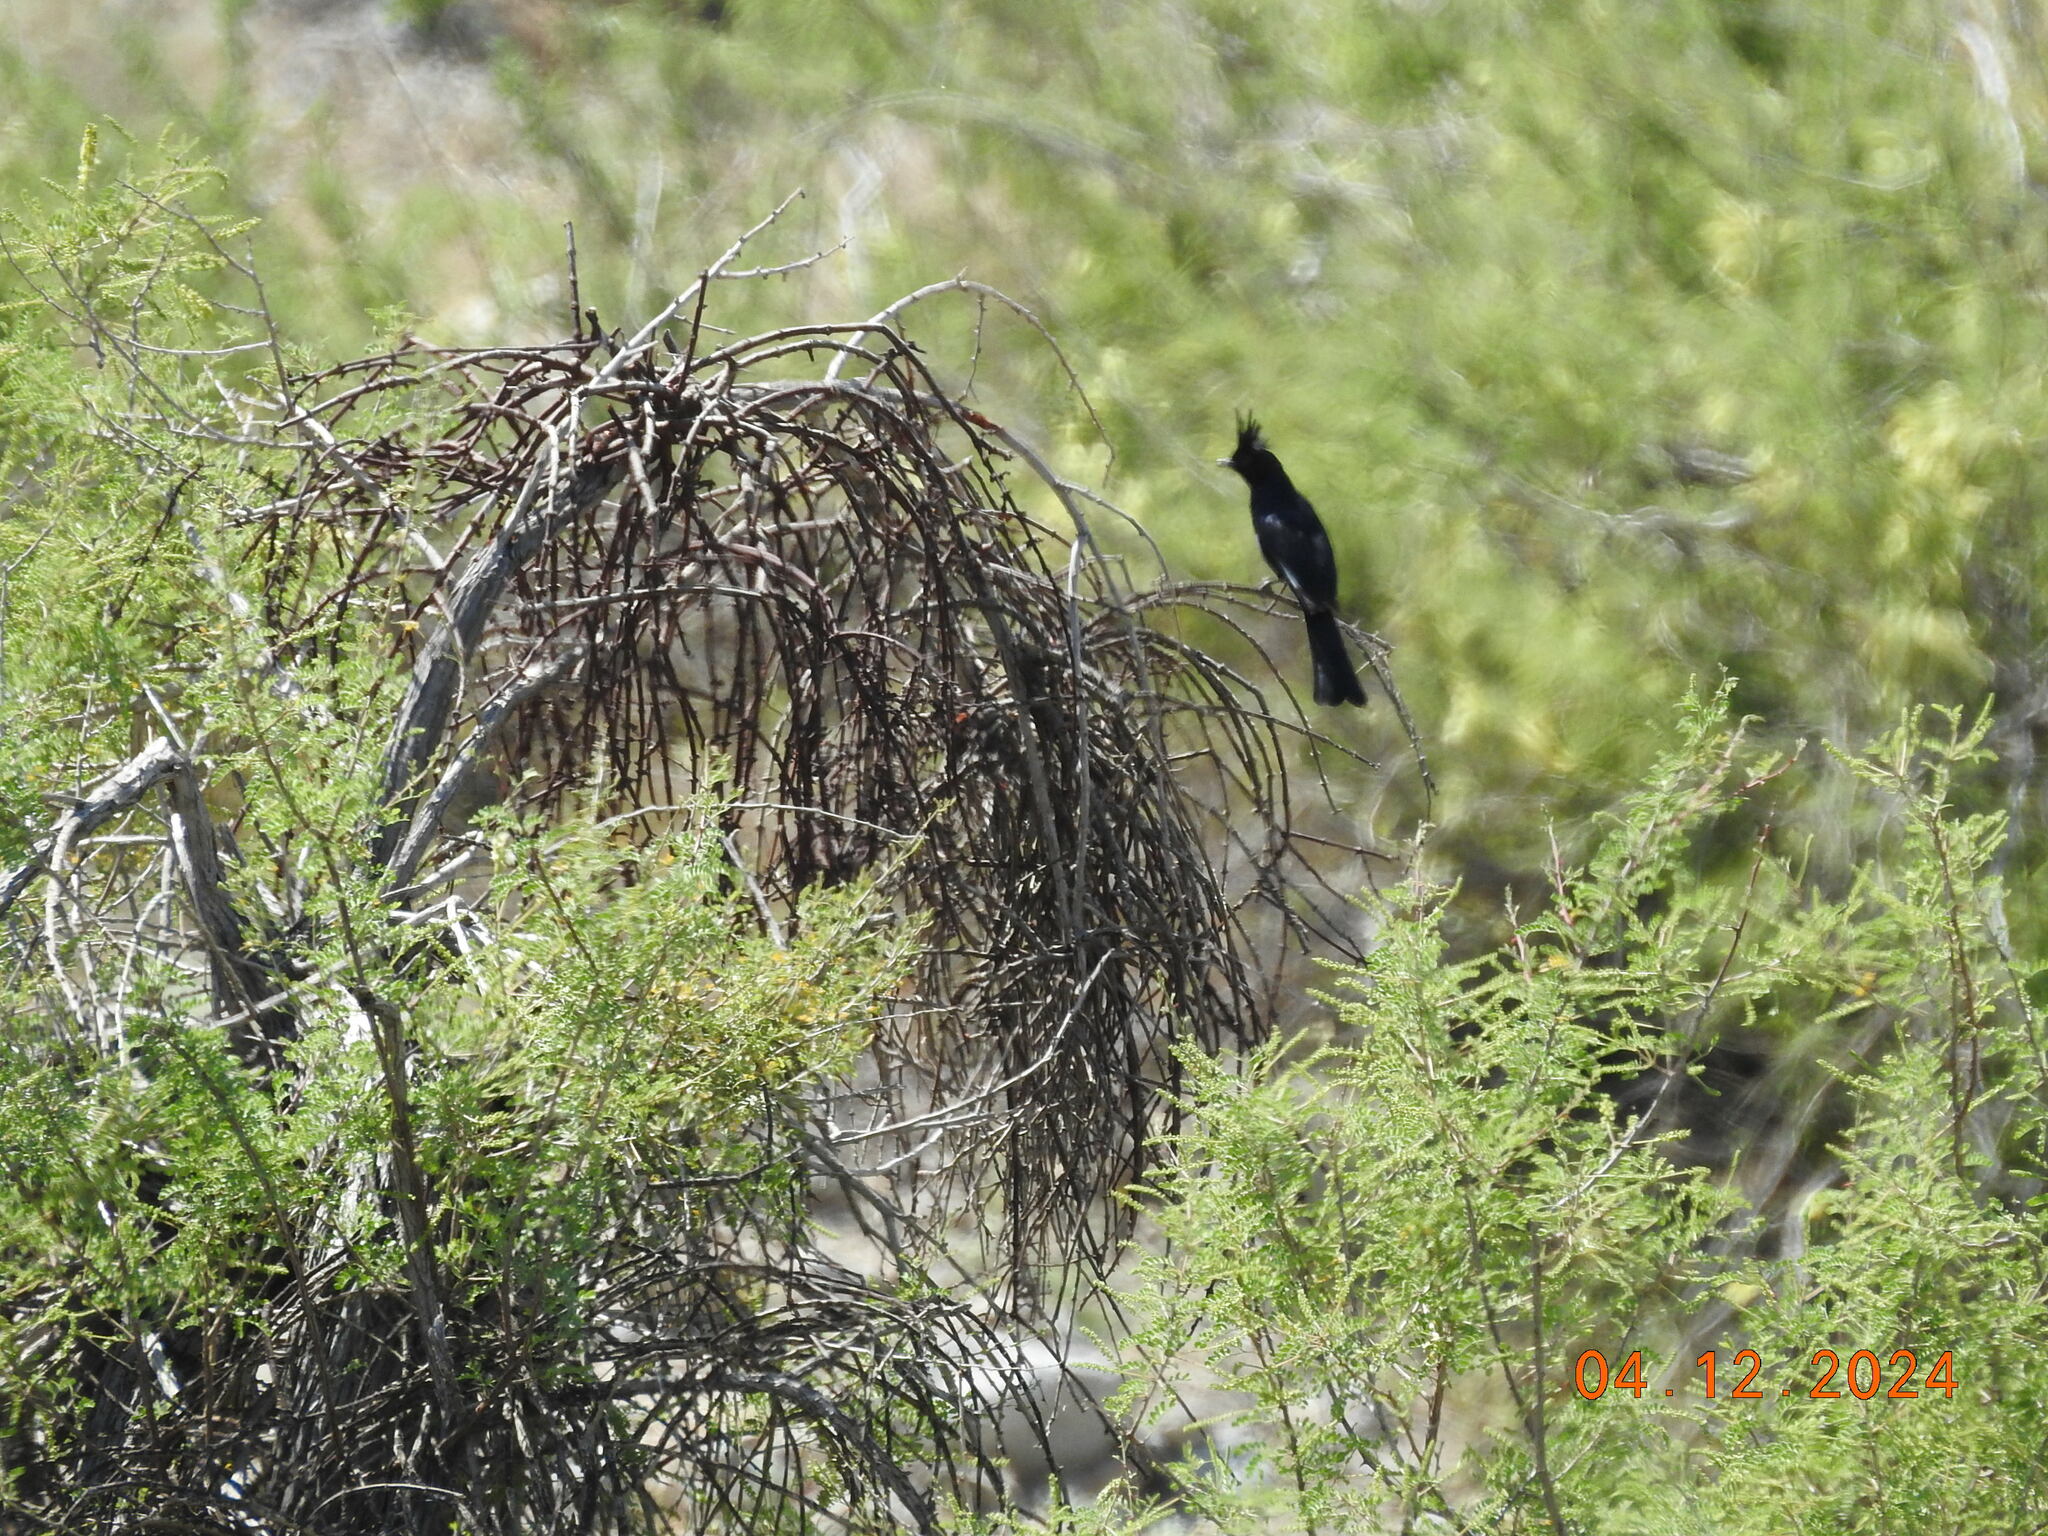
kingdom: Animalia
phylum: Chordata
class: Aves
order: Passeriformes
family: Ptilogonatidae
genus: Phainopepla
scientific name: Phainopepla nitens
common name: Phainopepla
